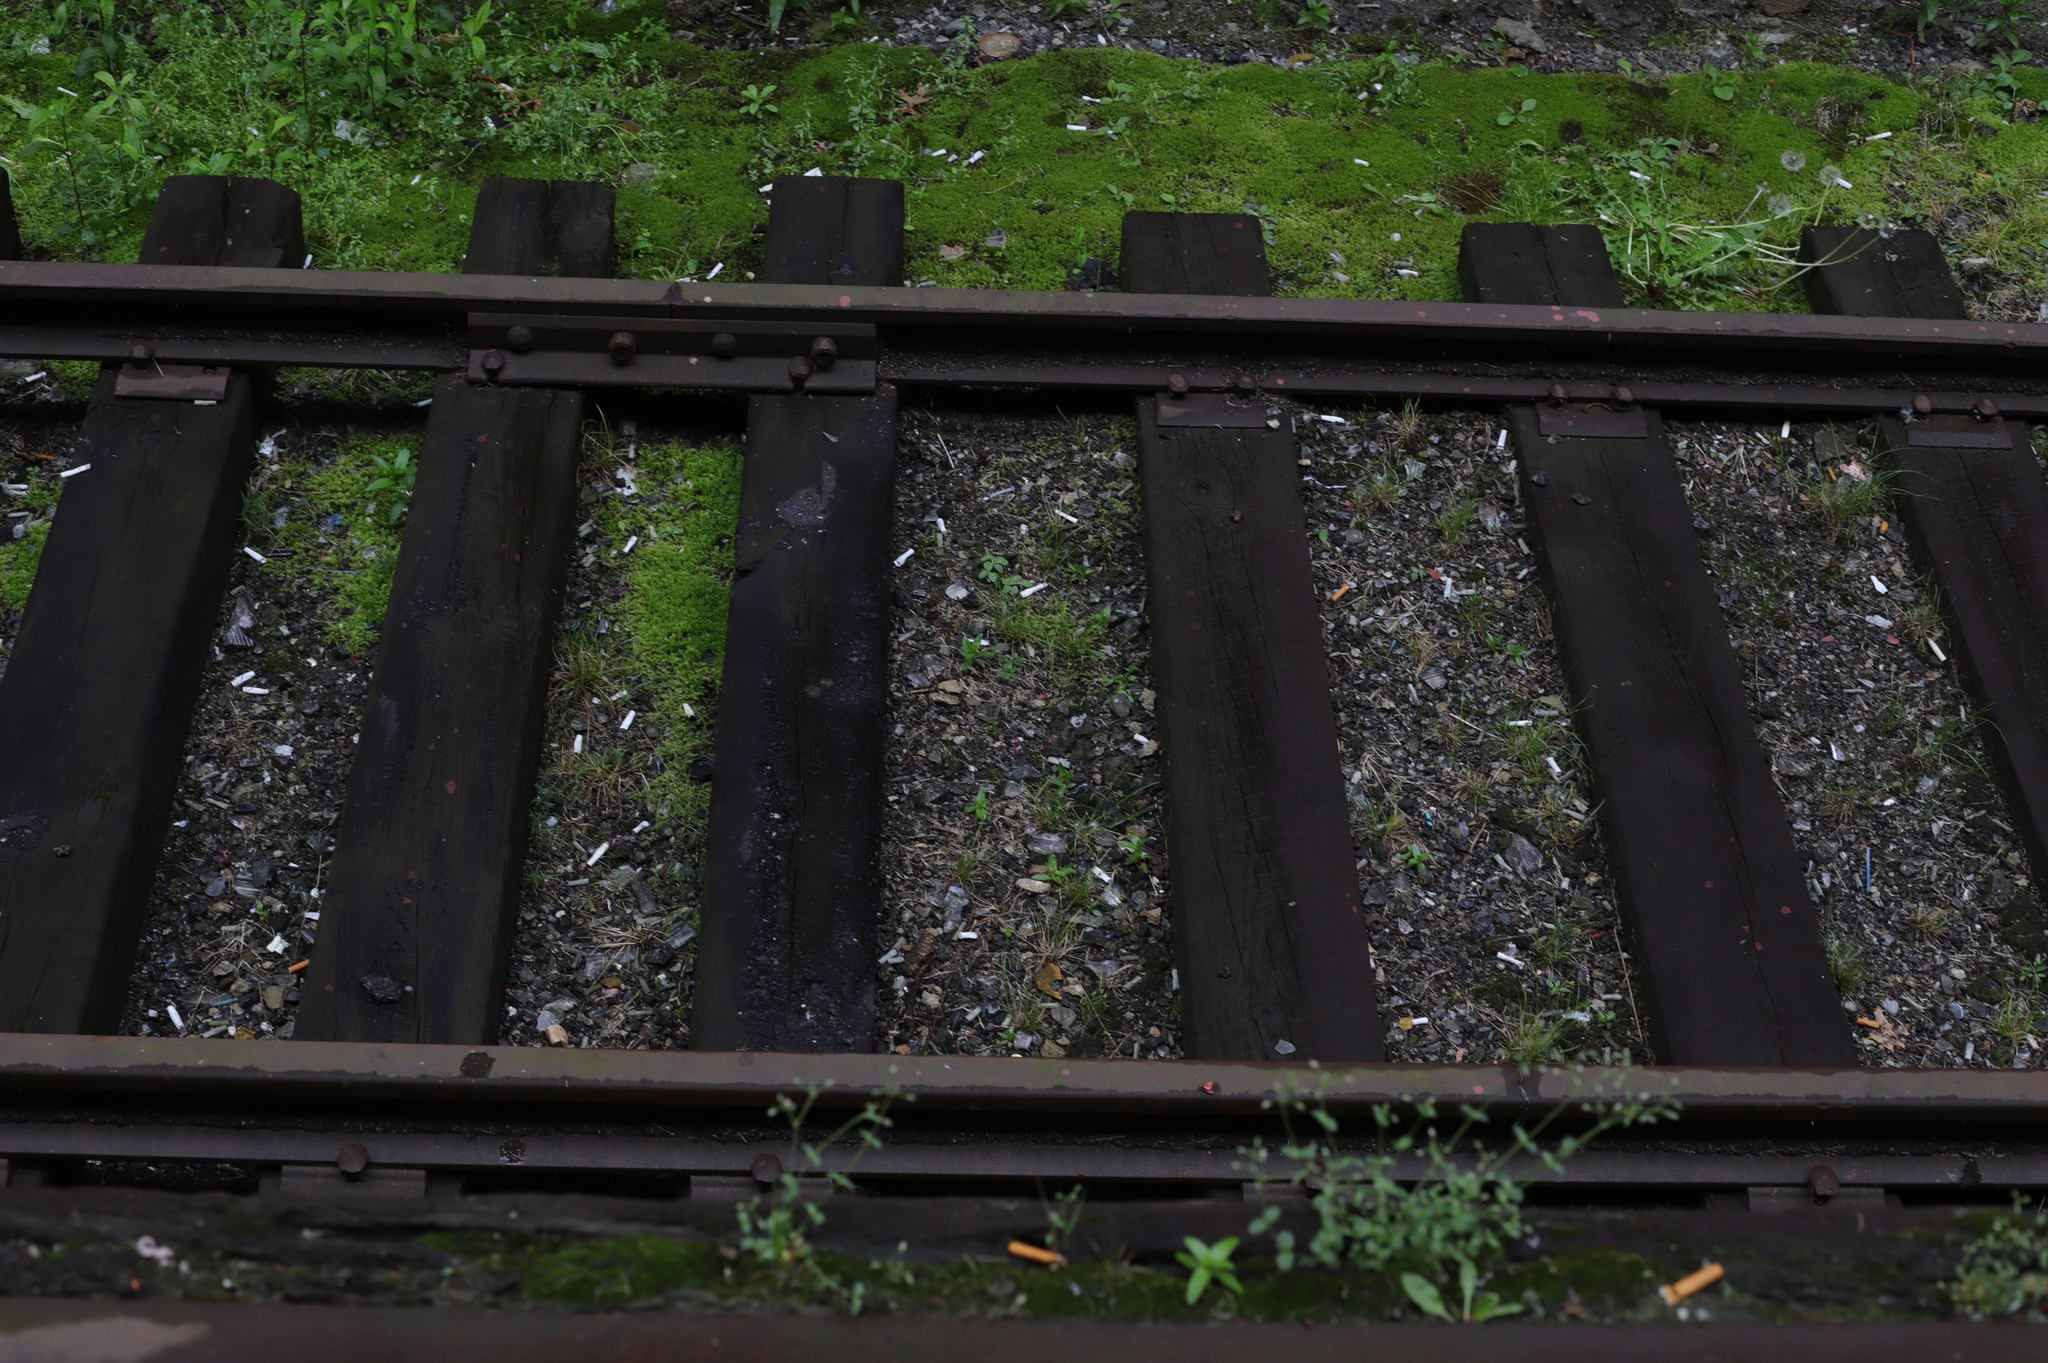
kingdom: Plantae
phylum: Tracheophyta
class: Magnoliopsida
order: Asterales
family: Asteraceae
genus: Taraxacum
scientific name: Taraxacum officinale
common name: Common dandelion
